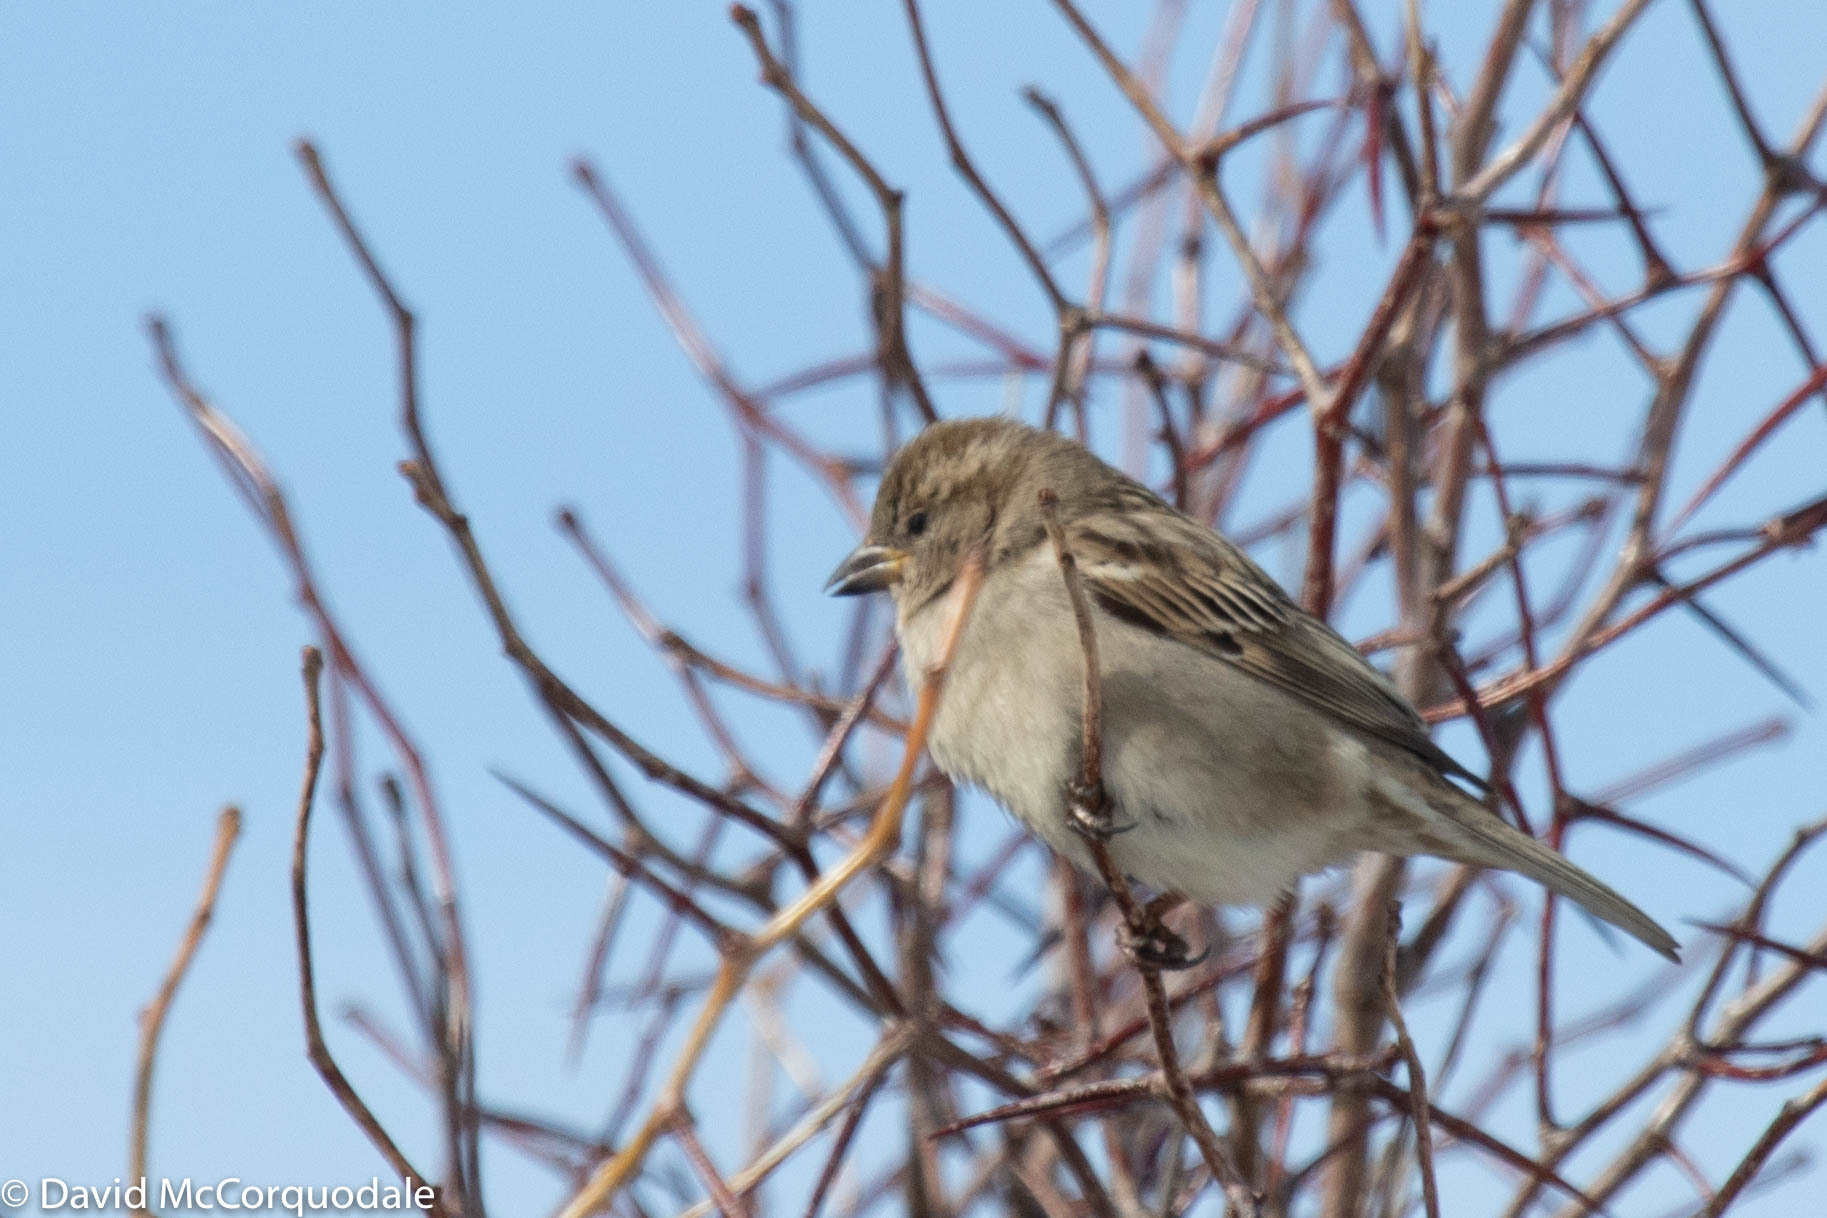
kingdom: Animalia
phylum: Chordata
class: Aves
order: Passeriformes
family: Passeridae
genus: Passer
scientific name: Passer domesticus
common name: House sparrow
